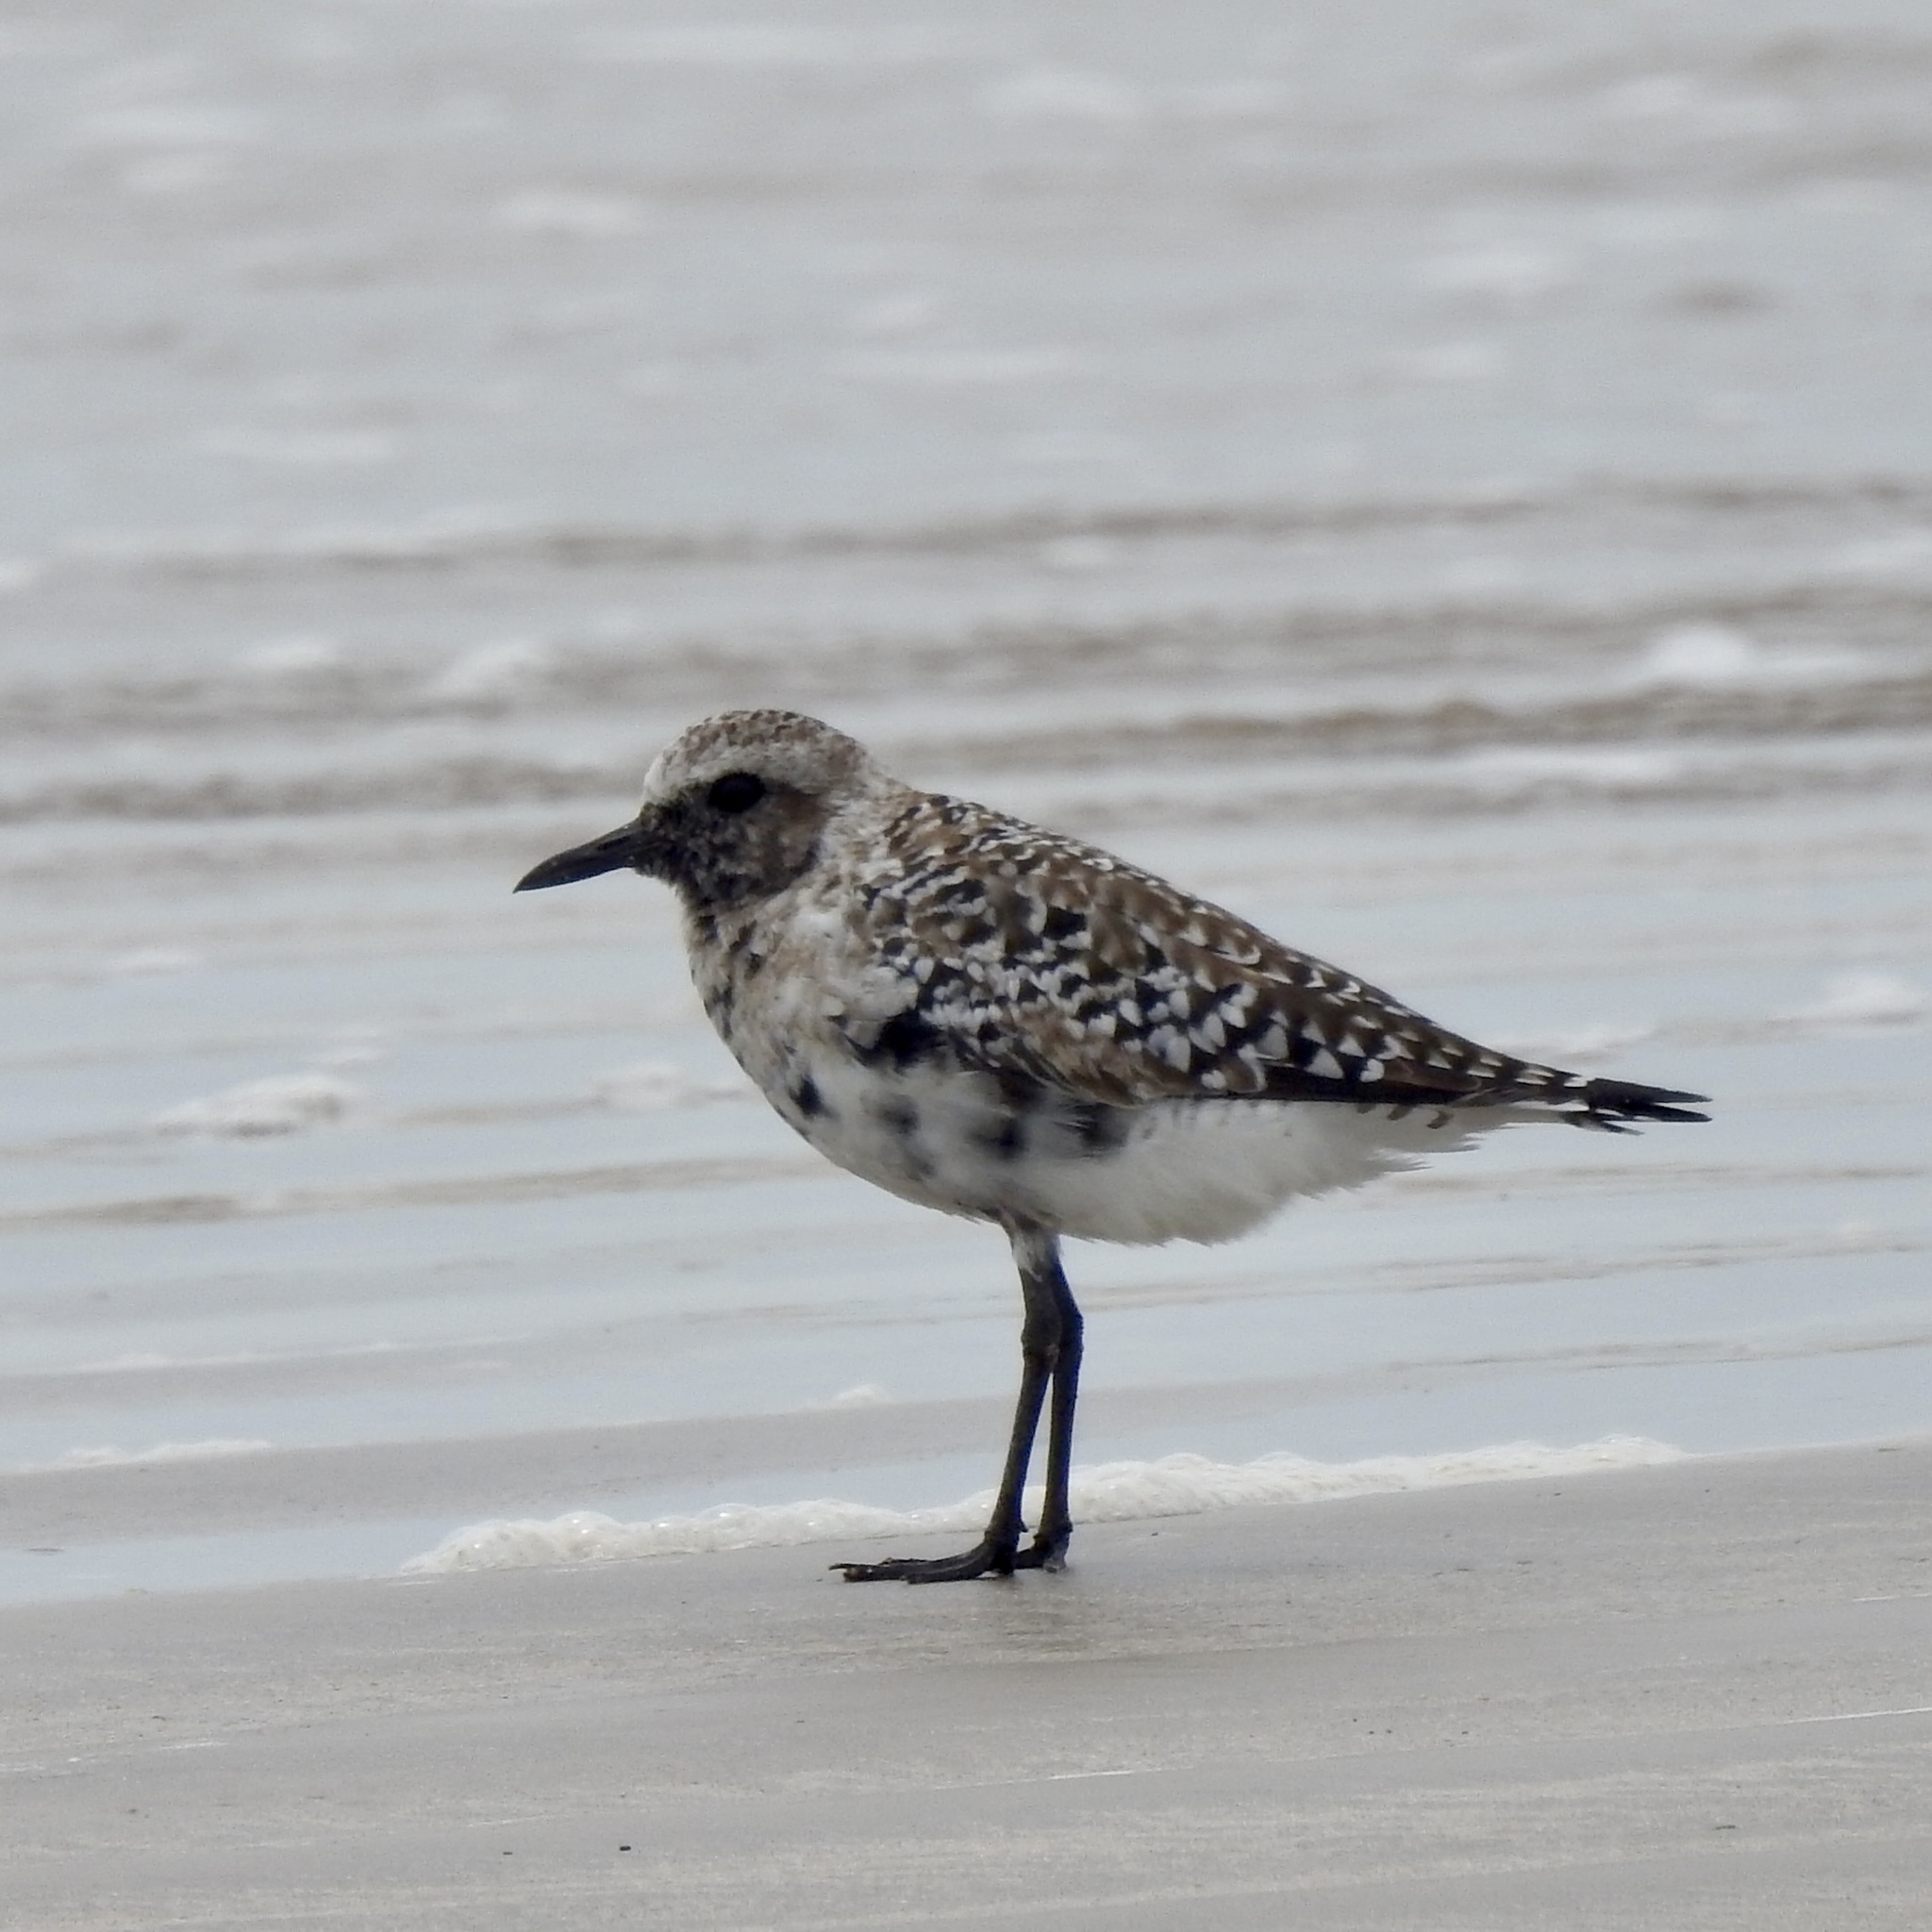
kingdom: Animalia
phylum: Chordata
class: Aves
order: Charadriiformes
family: Charadriidae
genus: Pluvialis
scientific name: Pluvialis squatarola
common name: Grey plover
